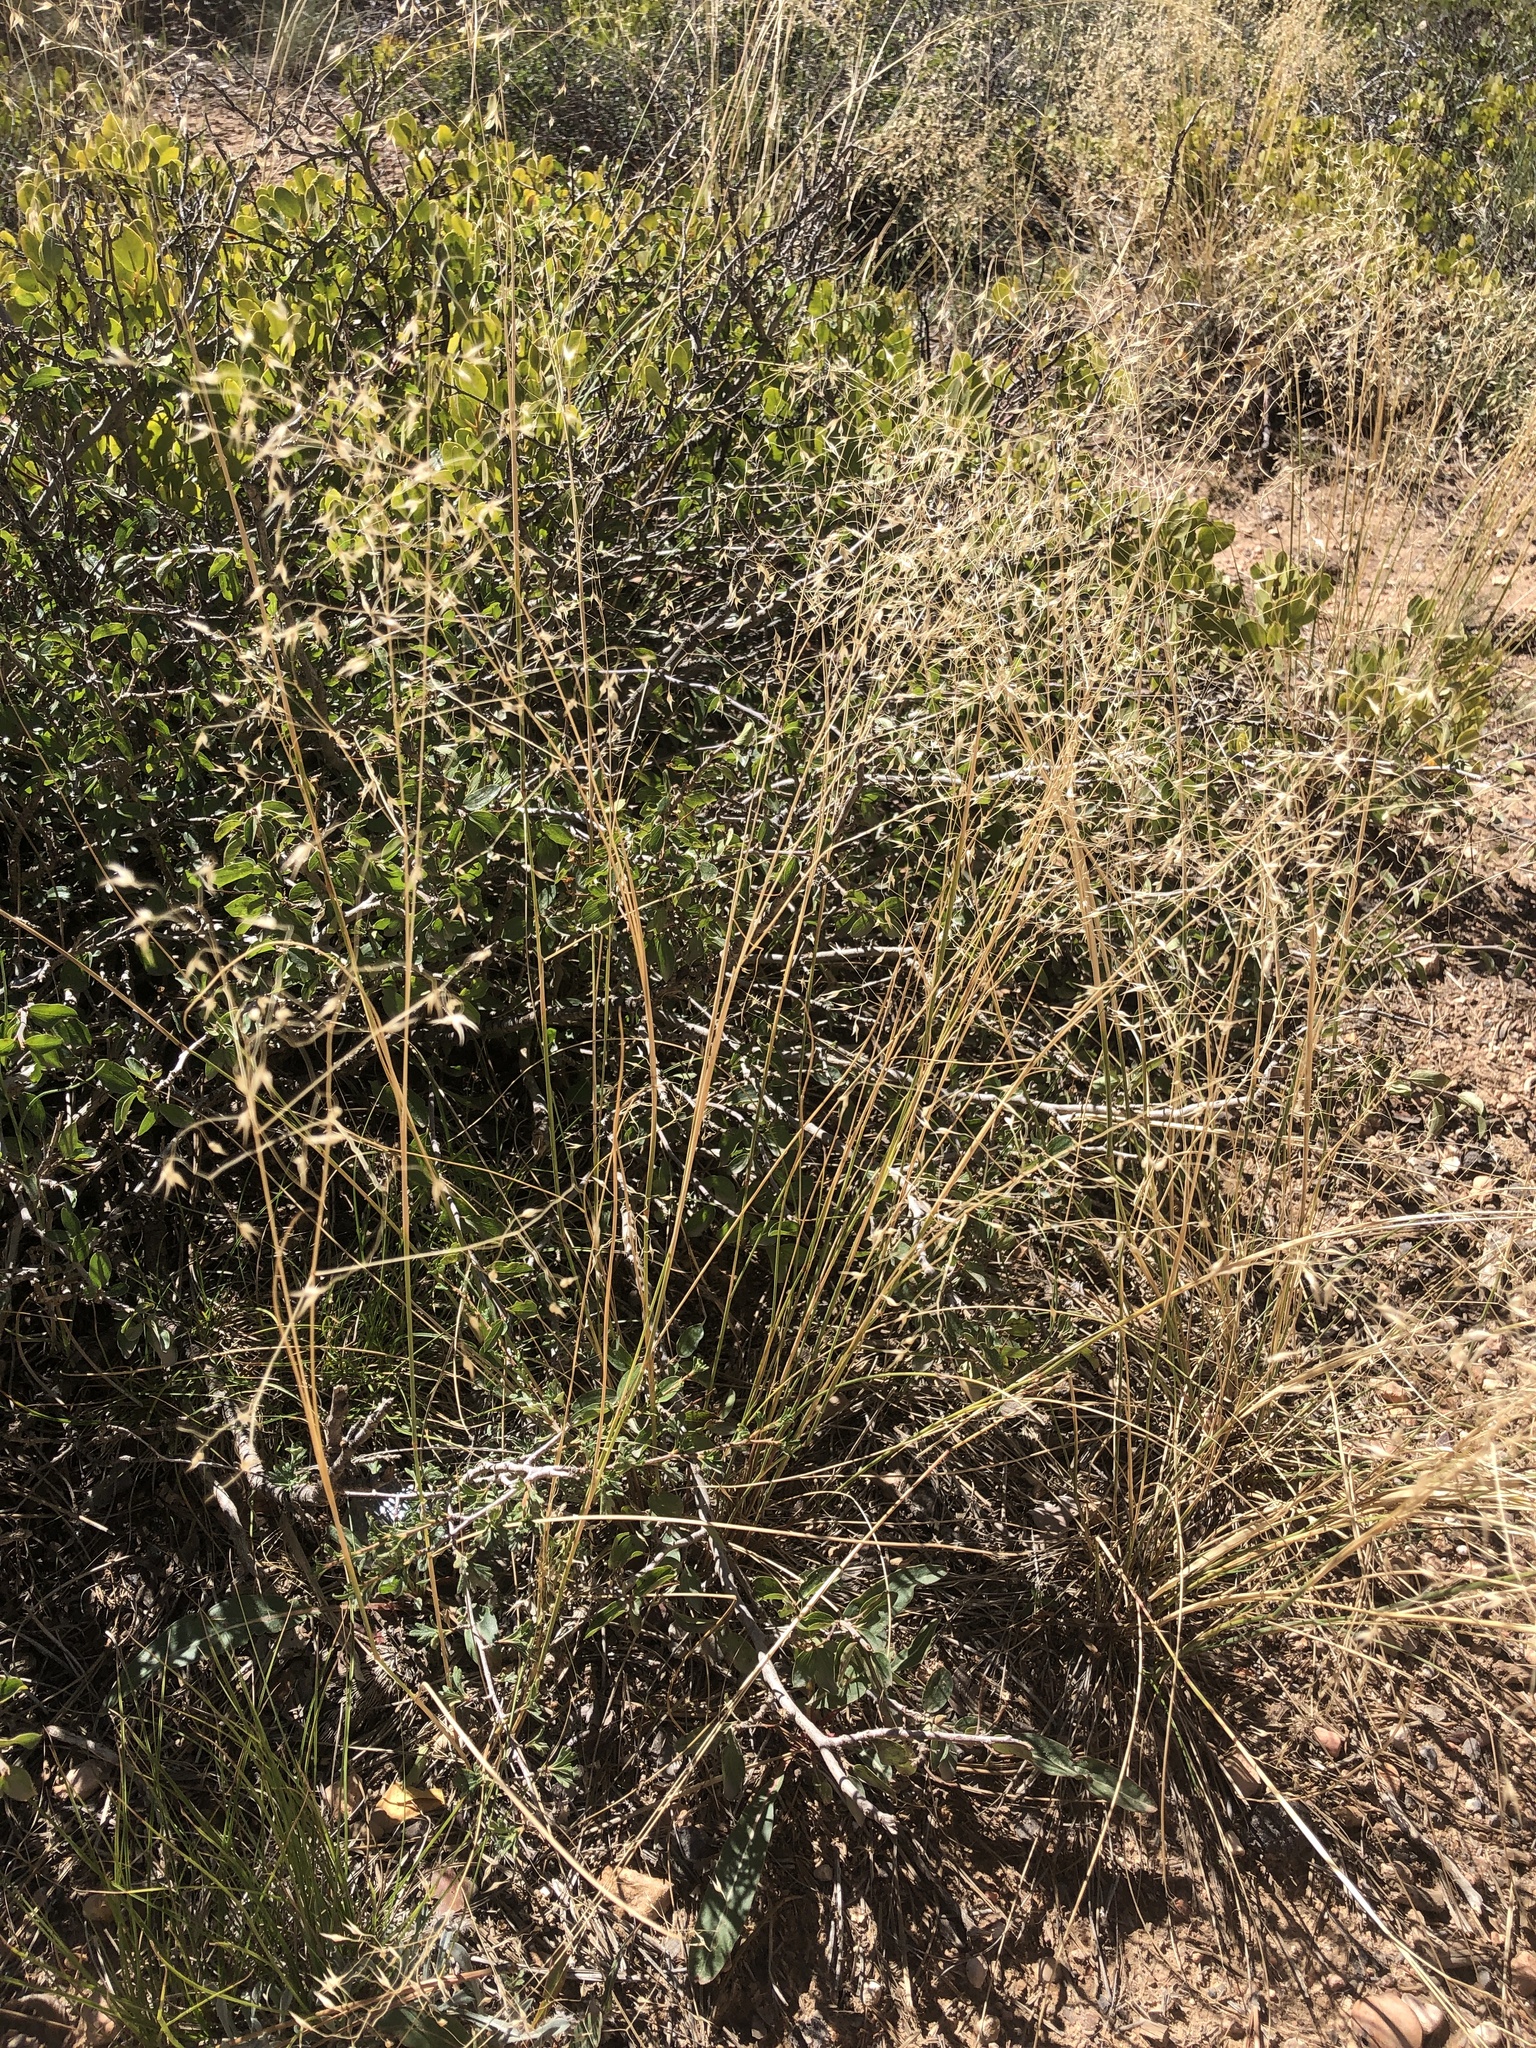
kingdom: Plantae
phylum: Tracheophyta
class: Liliopsida
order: Poales
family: Poaceae
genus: Eriocoma
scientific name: Eriocoma hymenoides
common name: Indian mountain ricegrass
